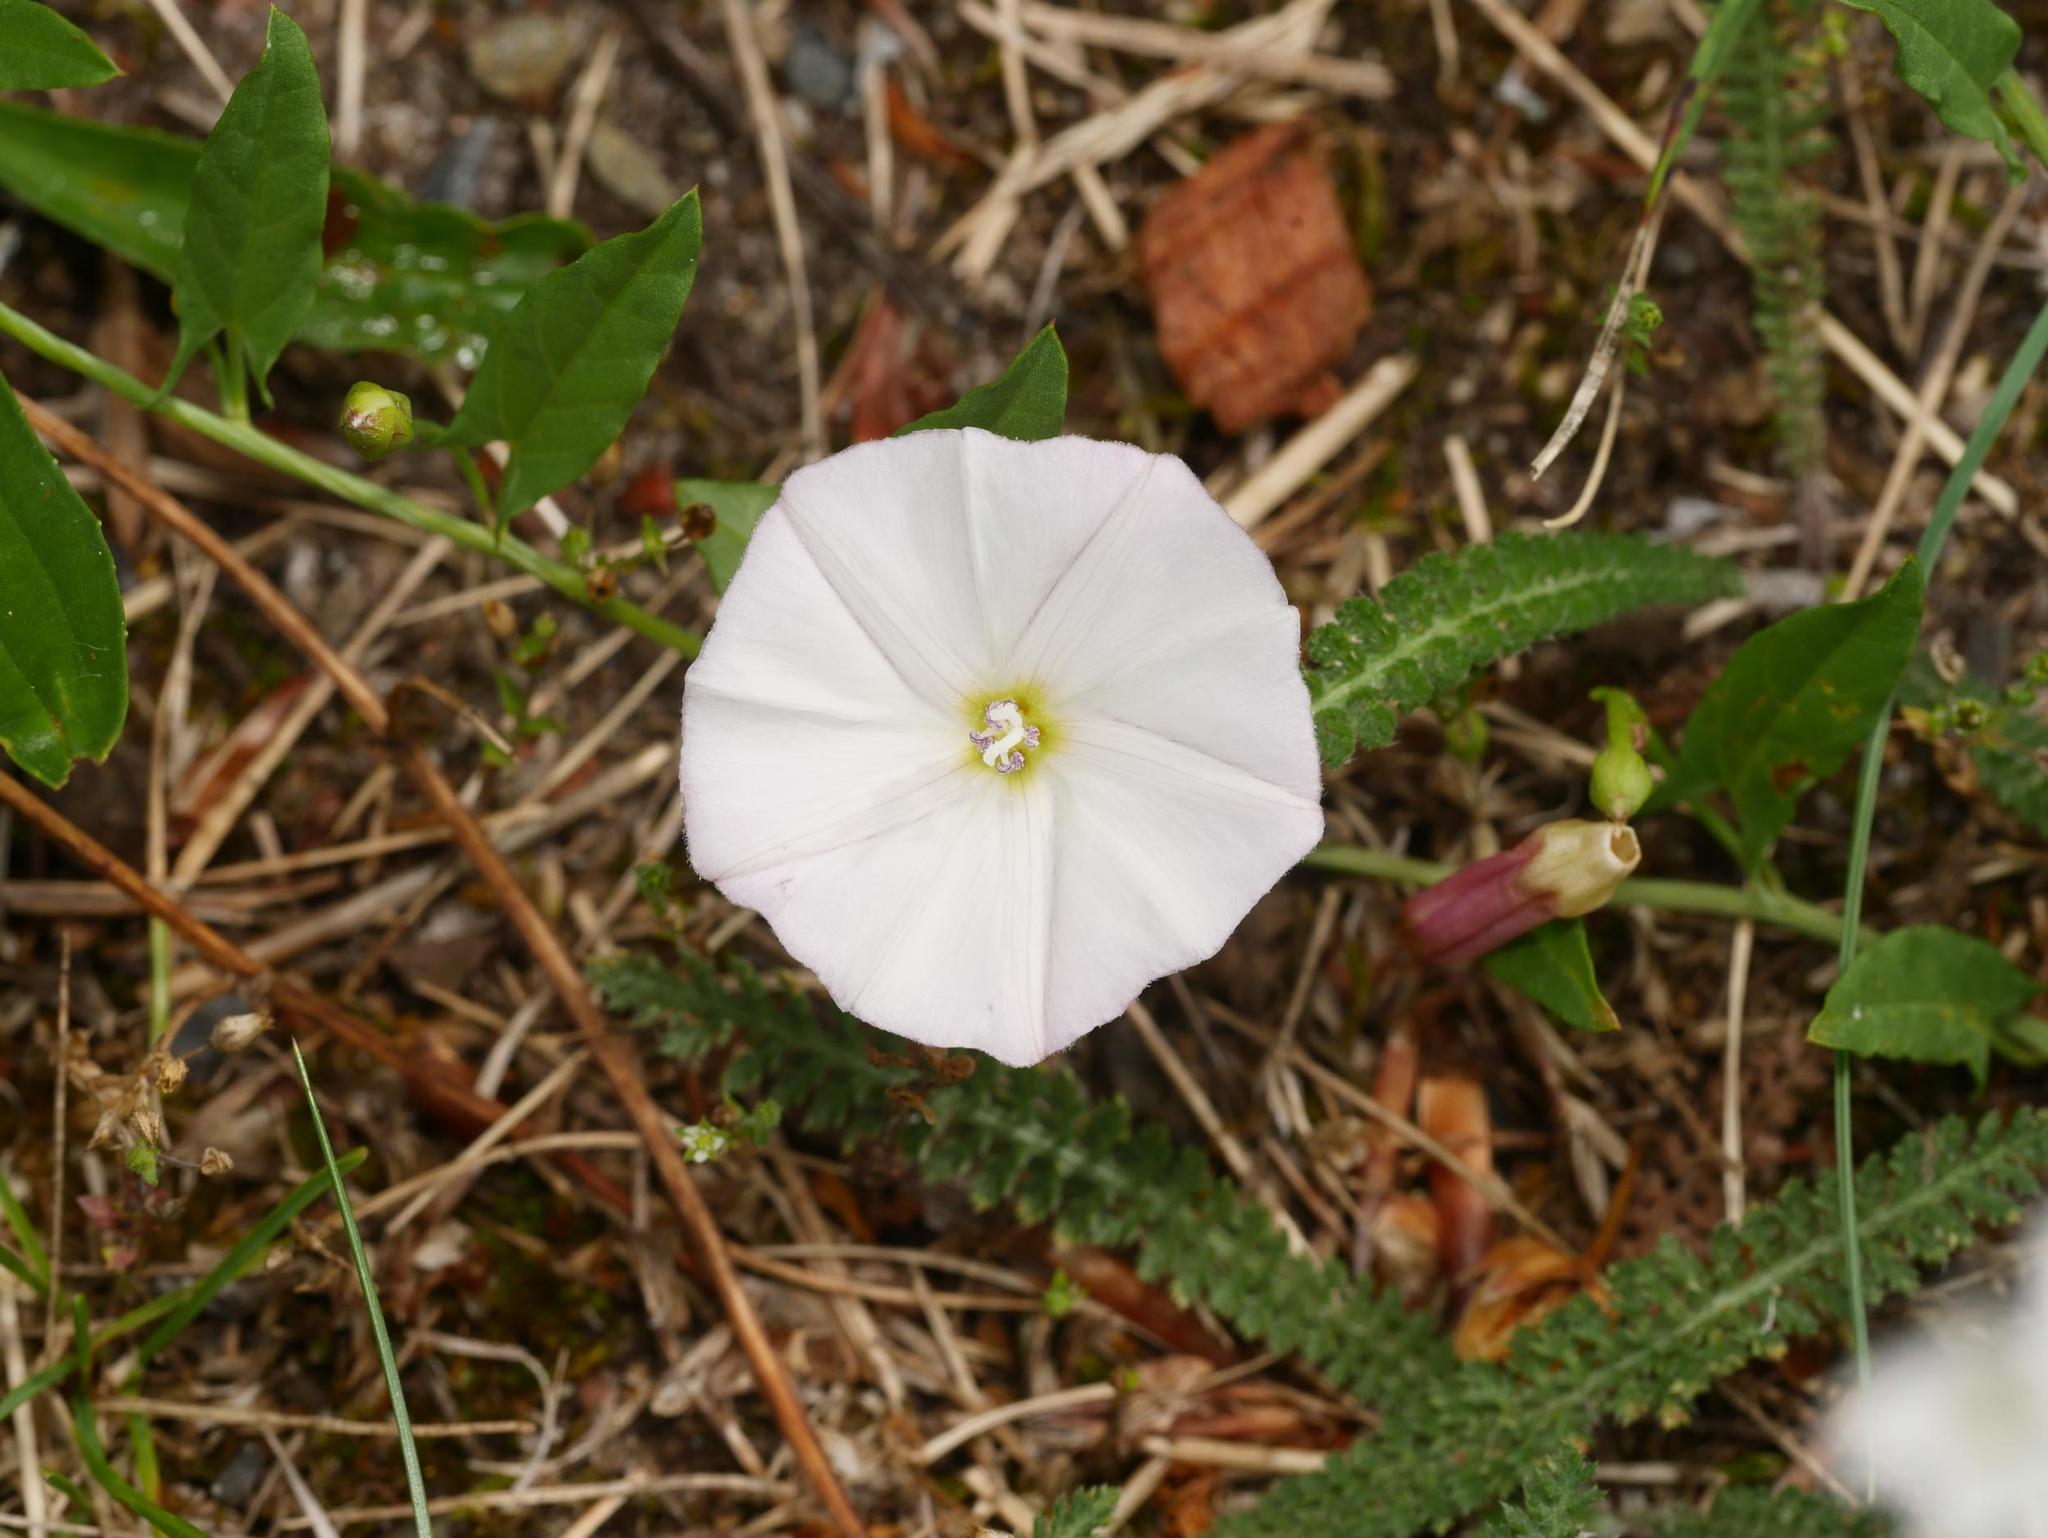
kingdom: Plantae
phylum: Tracheophyta
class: Magnoliopsida
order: Solanales
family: Convolvulaceae
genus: Convolvulus
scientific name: Convolvulus arvensis
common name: Field bindweed
